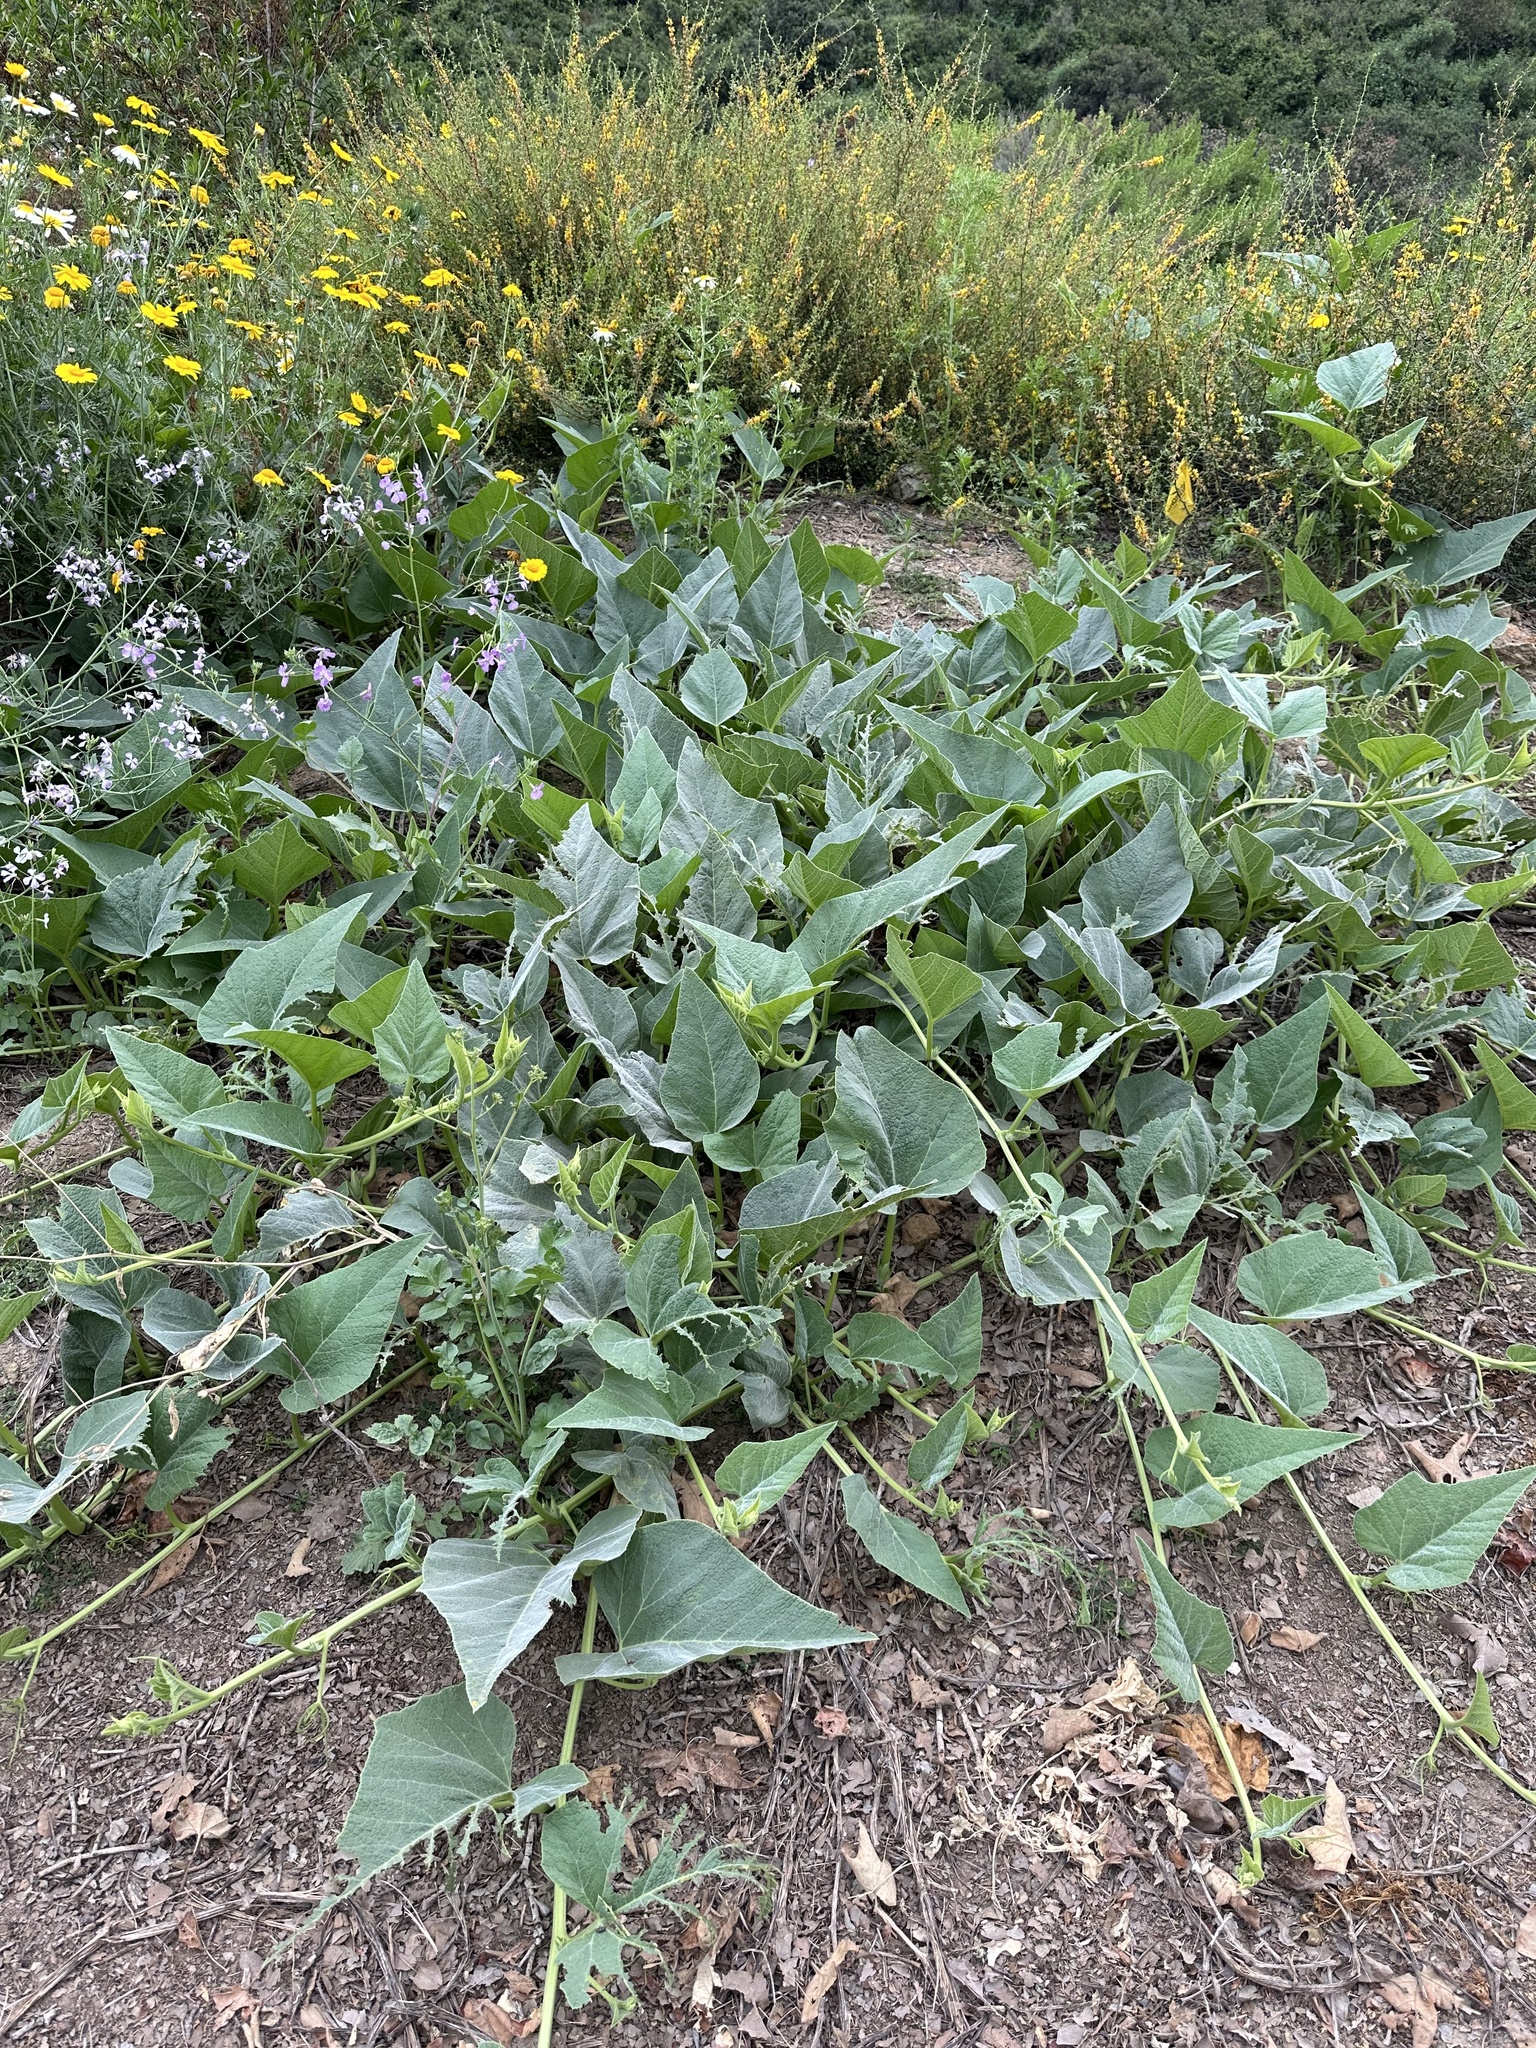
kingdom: Plantae
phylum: Tracheophyta
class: Magnoliopsida
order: Cucurbitales
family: Cucurbitaceae
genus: Cucurbita
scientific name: Cucurbita foetidissima
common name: Buffalo gourd
